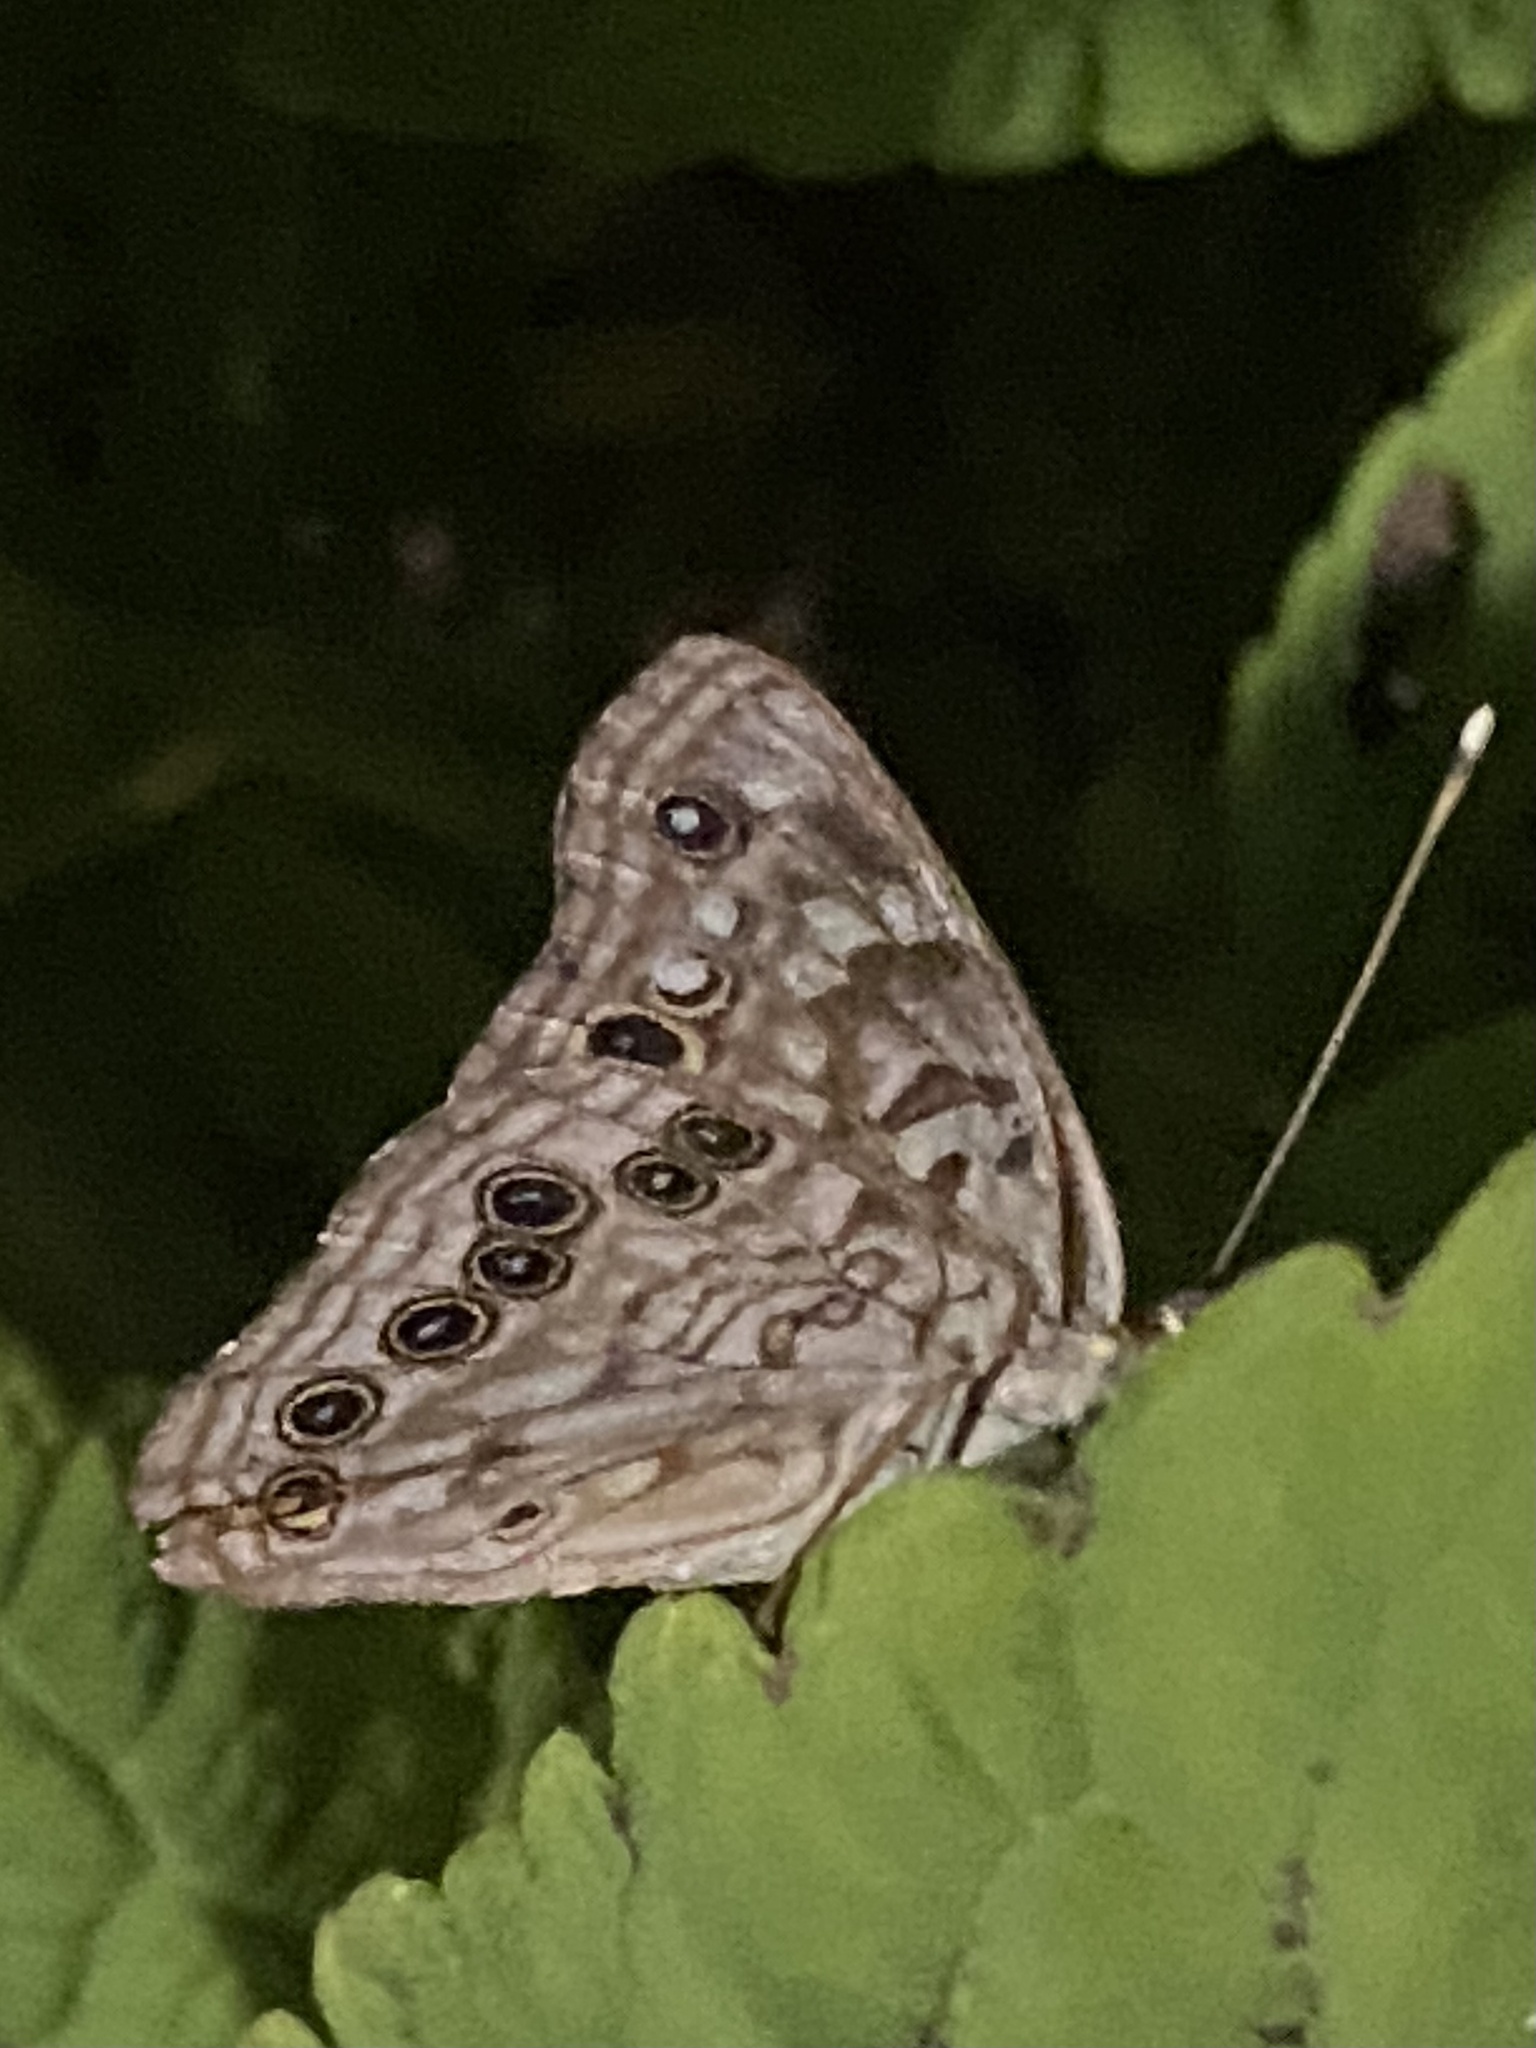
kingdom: Animalia
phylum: Arthropoda
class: Insecta
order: Lepidoptera
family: Nymphalidae
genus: Asterocampa
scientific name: Asterocampa celtis
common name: Hackberry emperor
